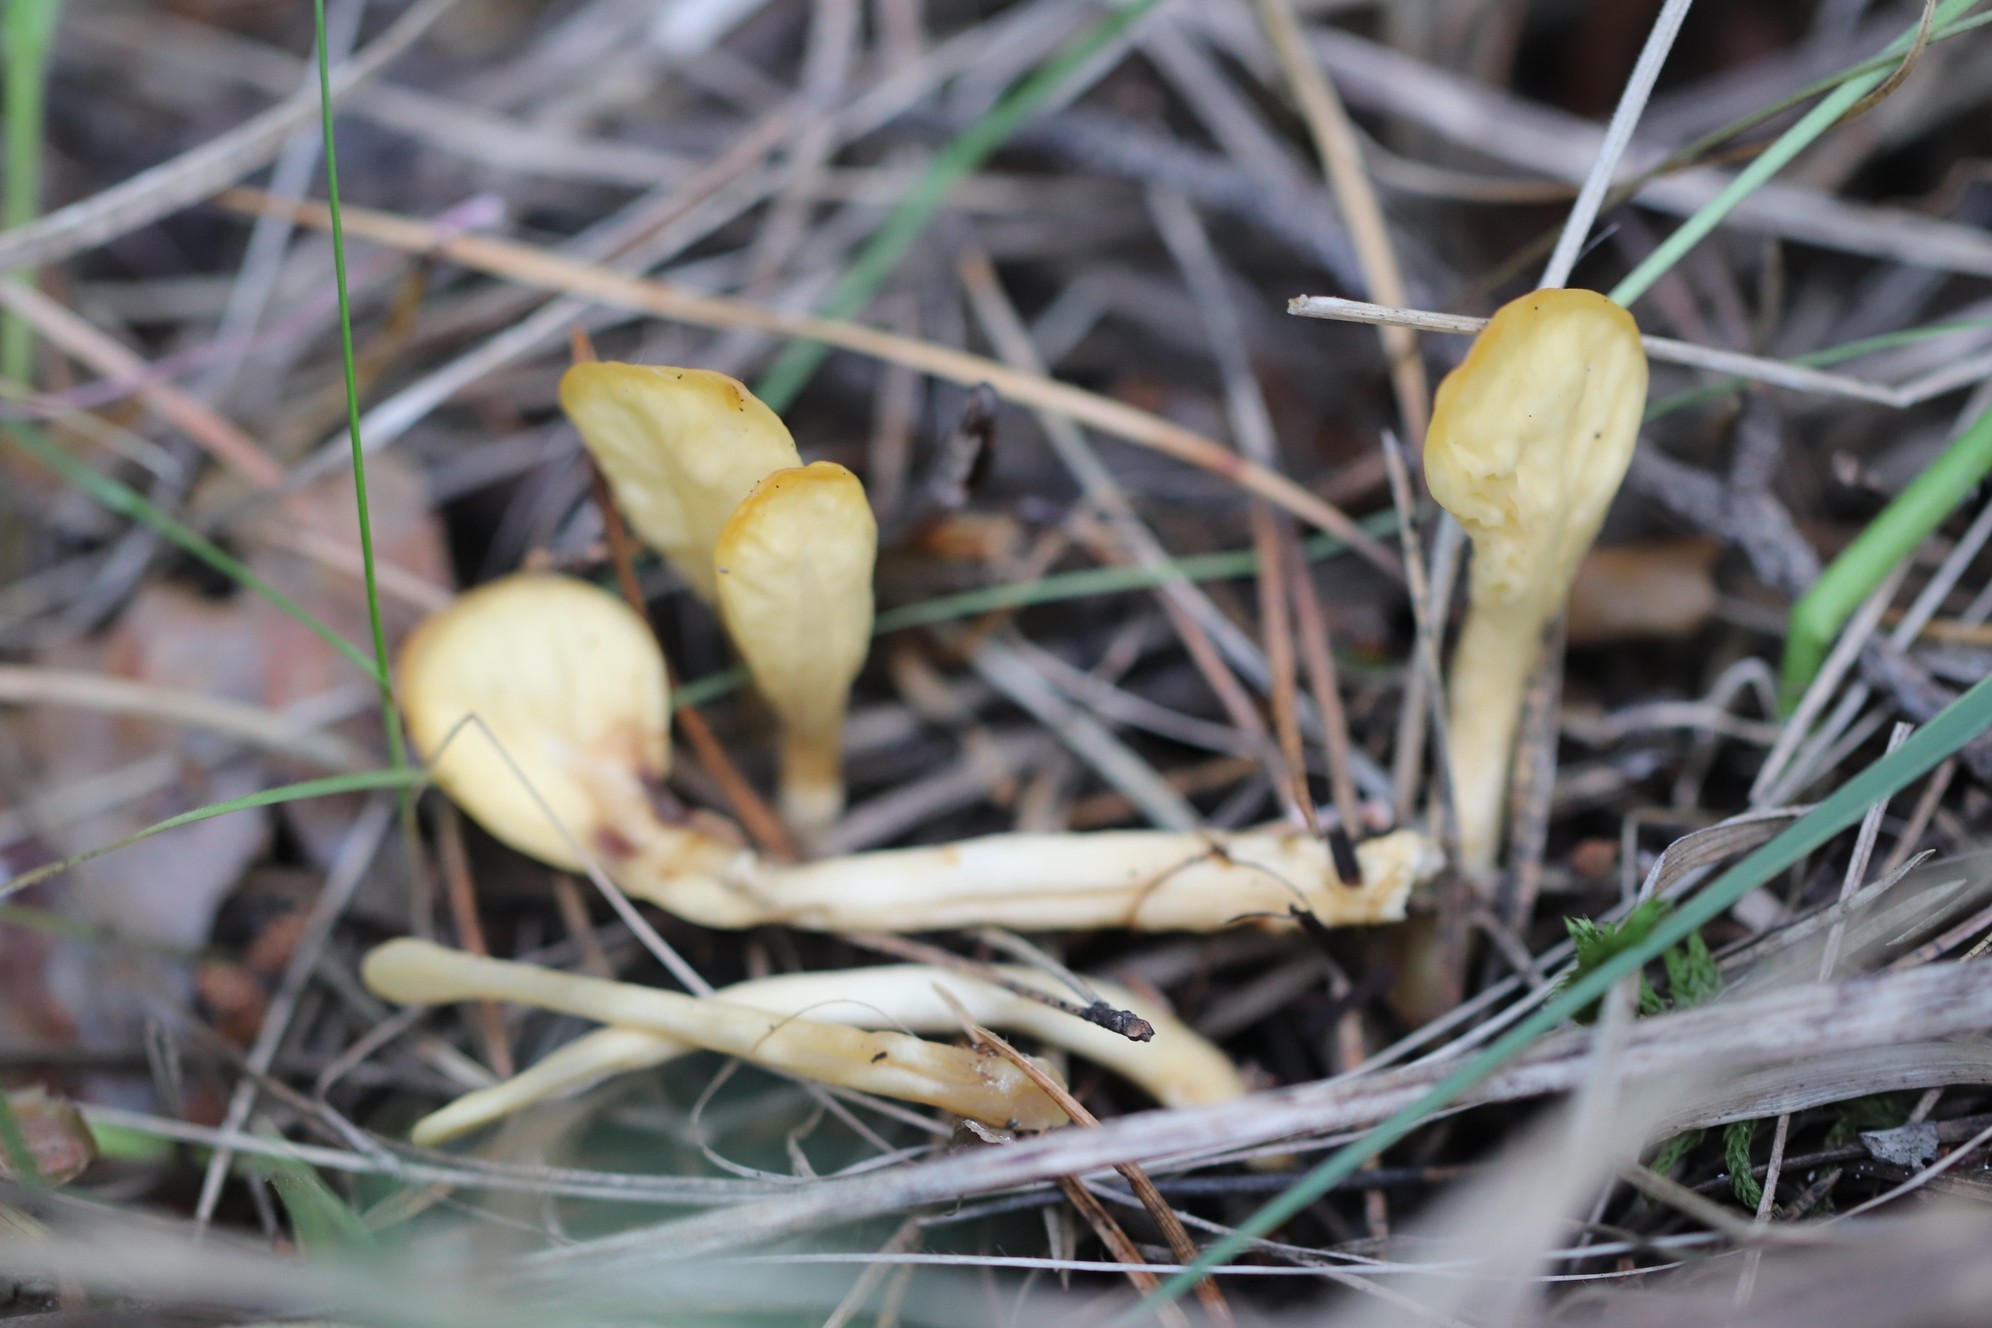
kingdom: Fungi
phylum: Ascomycota
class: Leotiomycetes
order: Rhytismatales
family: Cudoniaceae
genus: Spathularia
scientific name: Spathularia flavida
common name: Yellow fan
